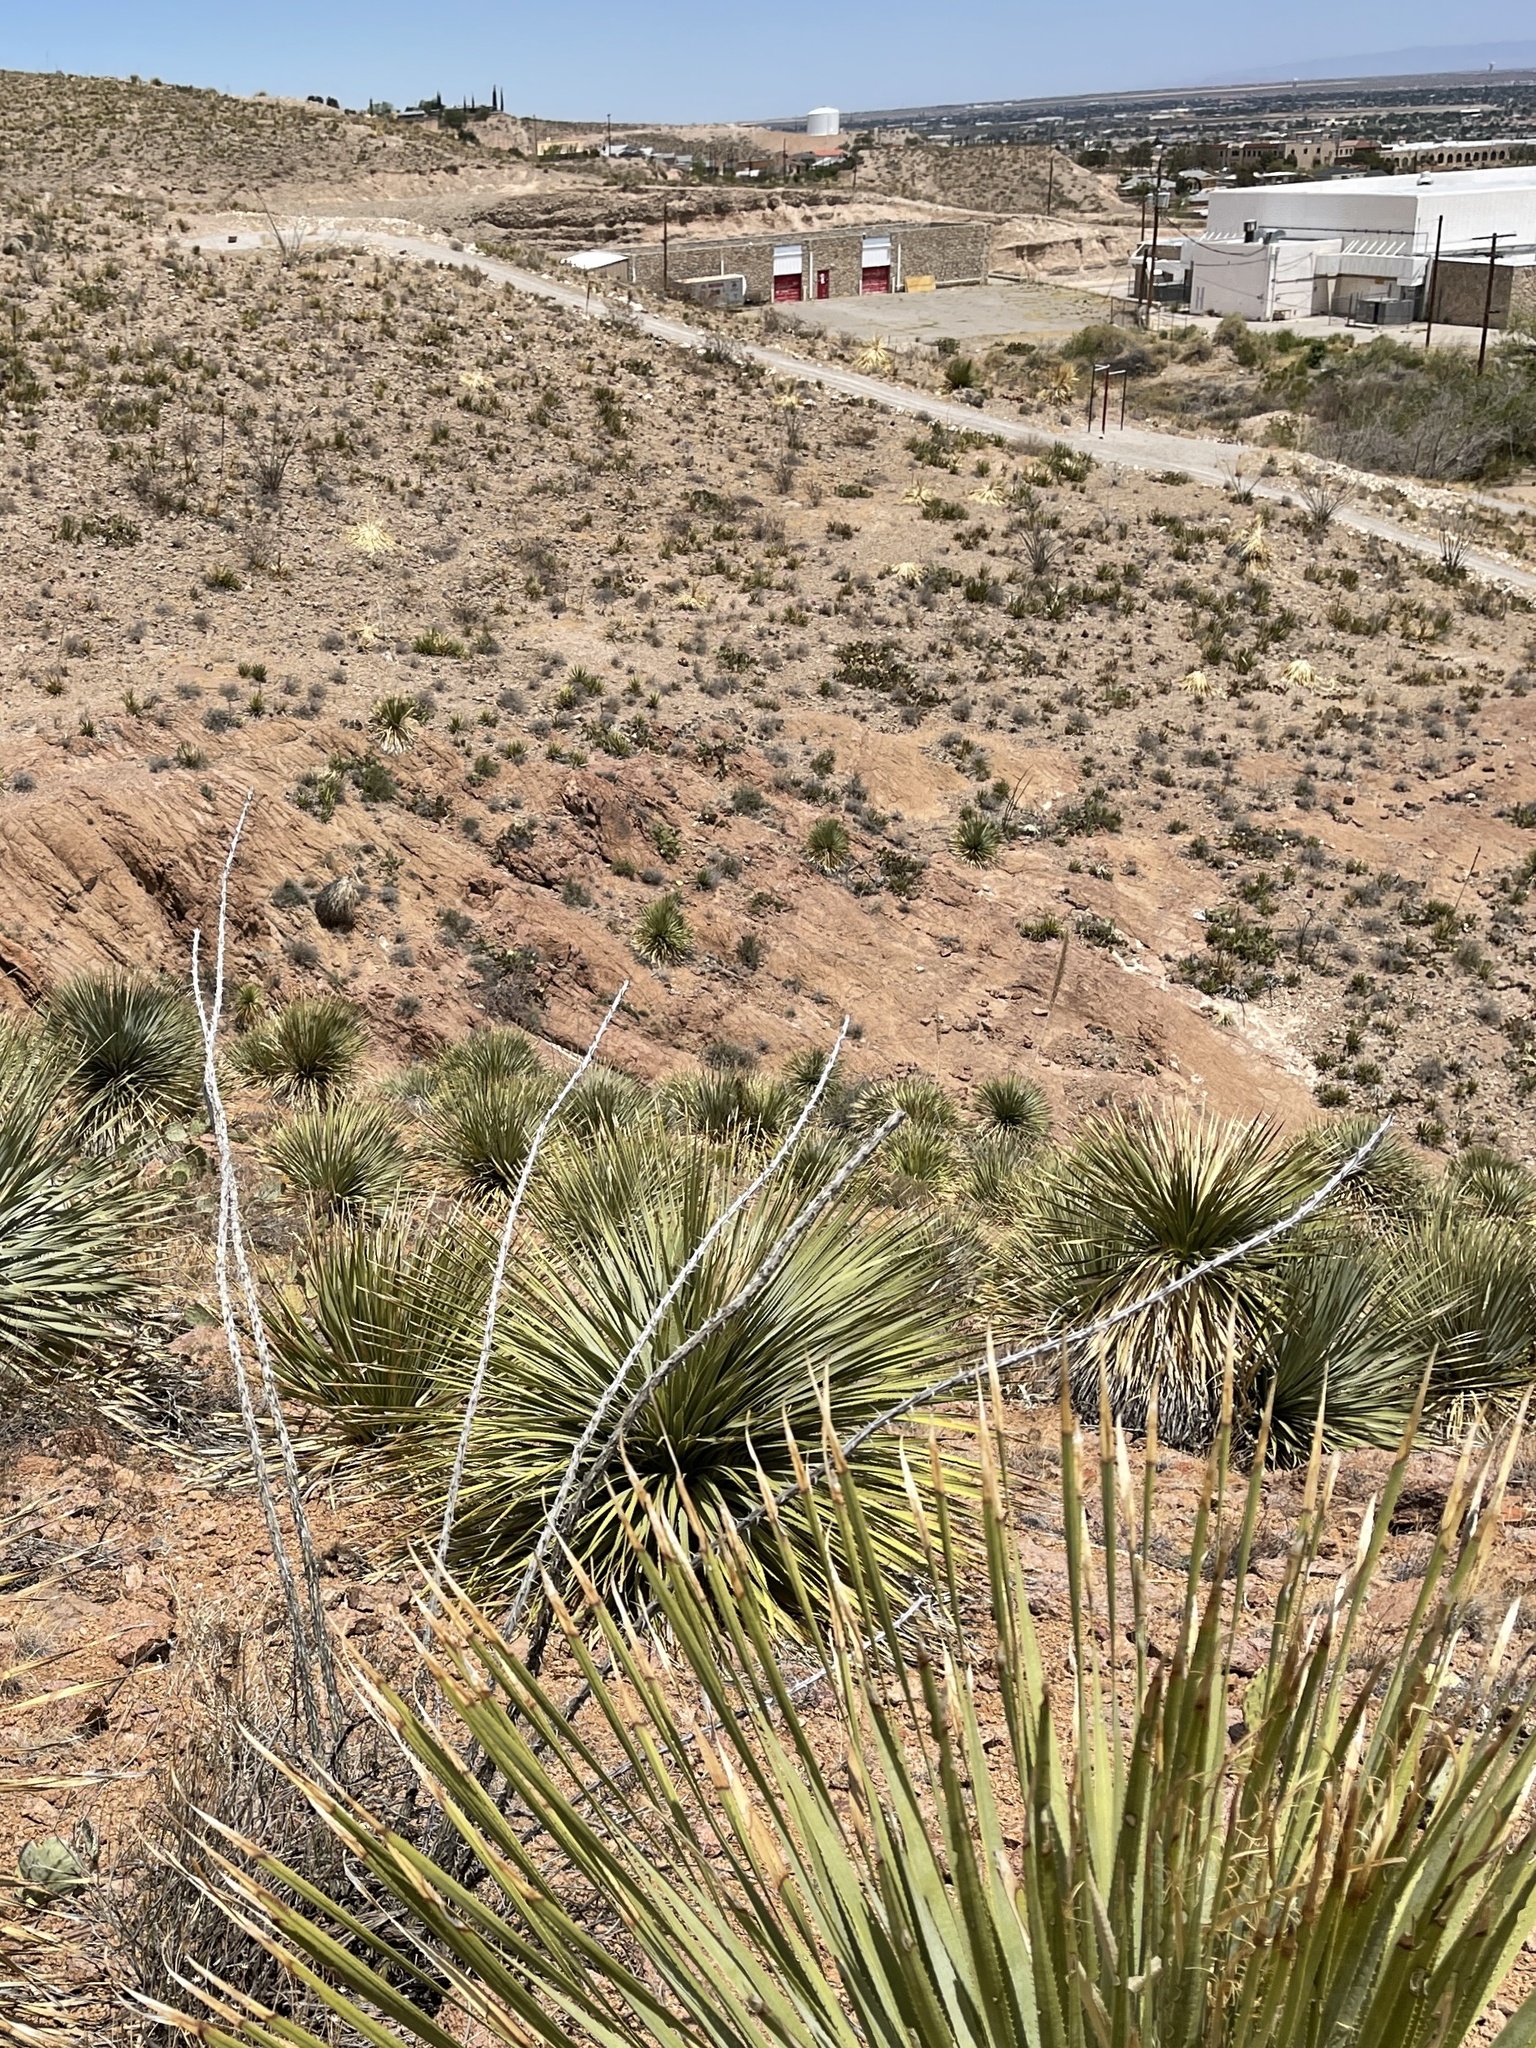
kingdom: Plantae
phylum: Tracheophyta
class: Magnoliopsida
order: Ericales
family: Fouquieriaceae
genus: Fouquieria
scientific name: Fouquieria splendens
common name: Vine-cactus
